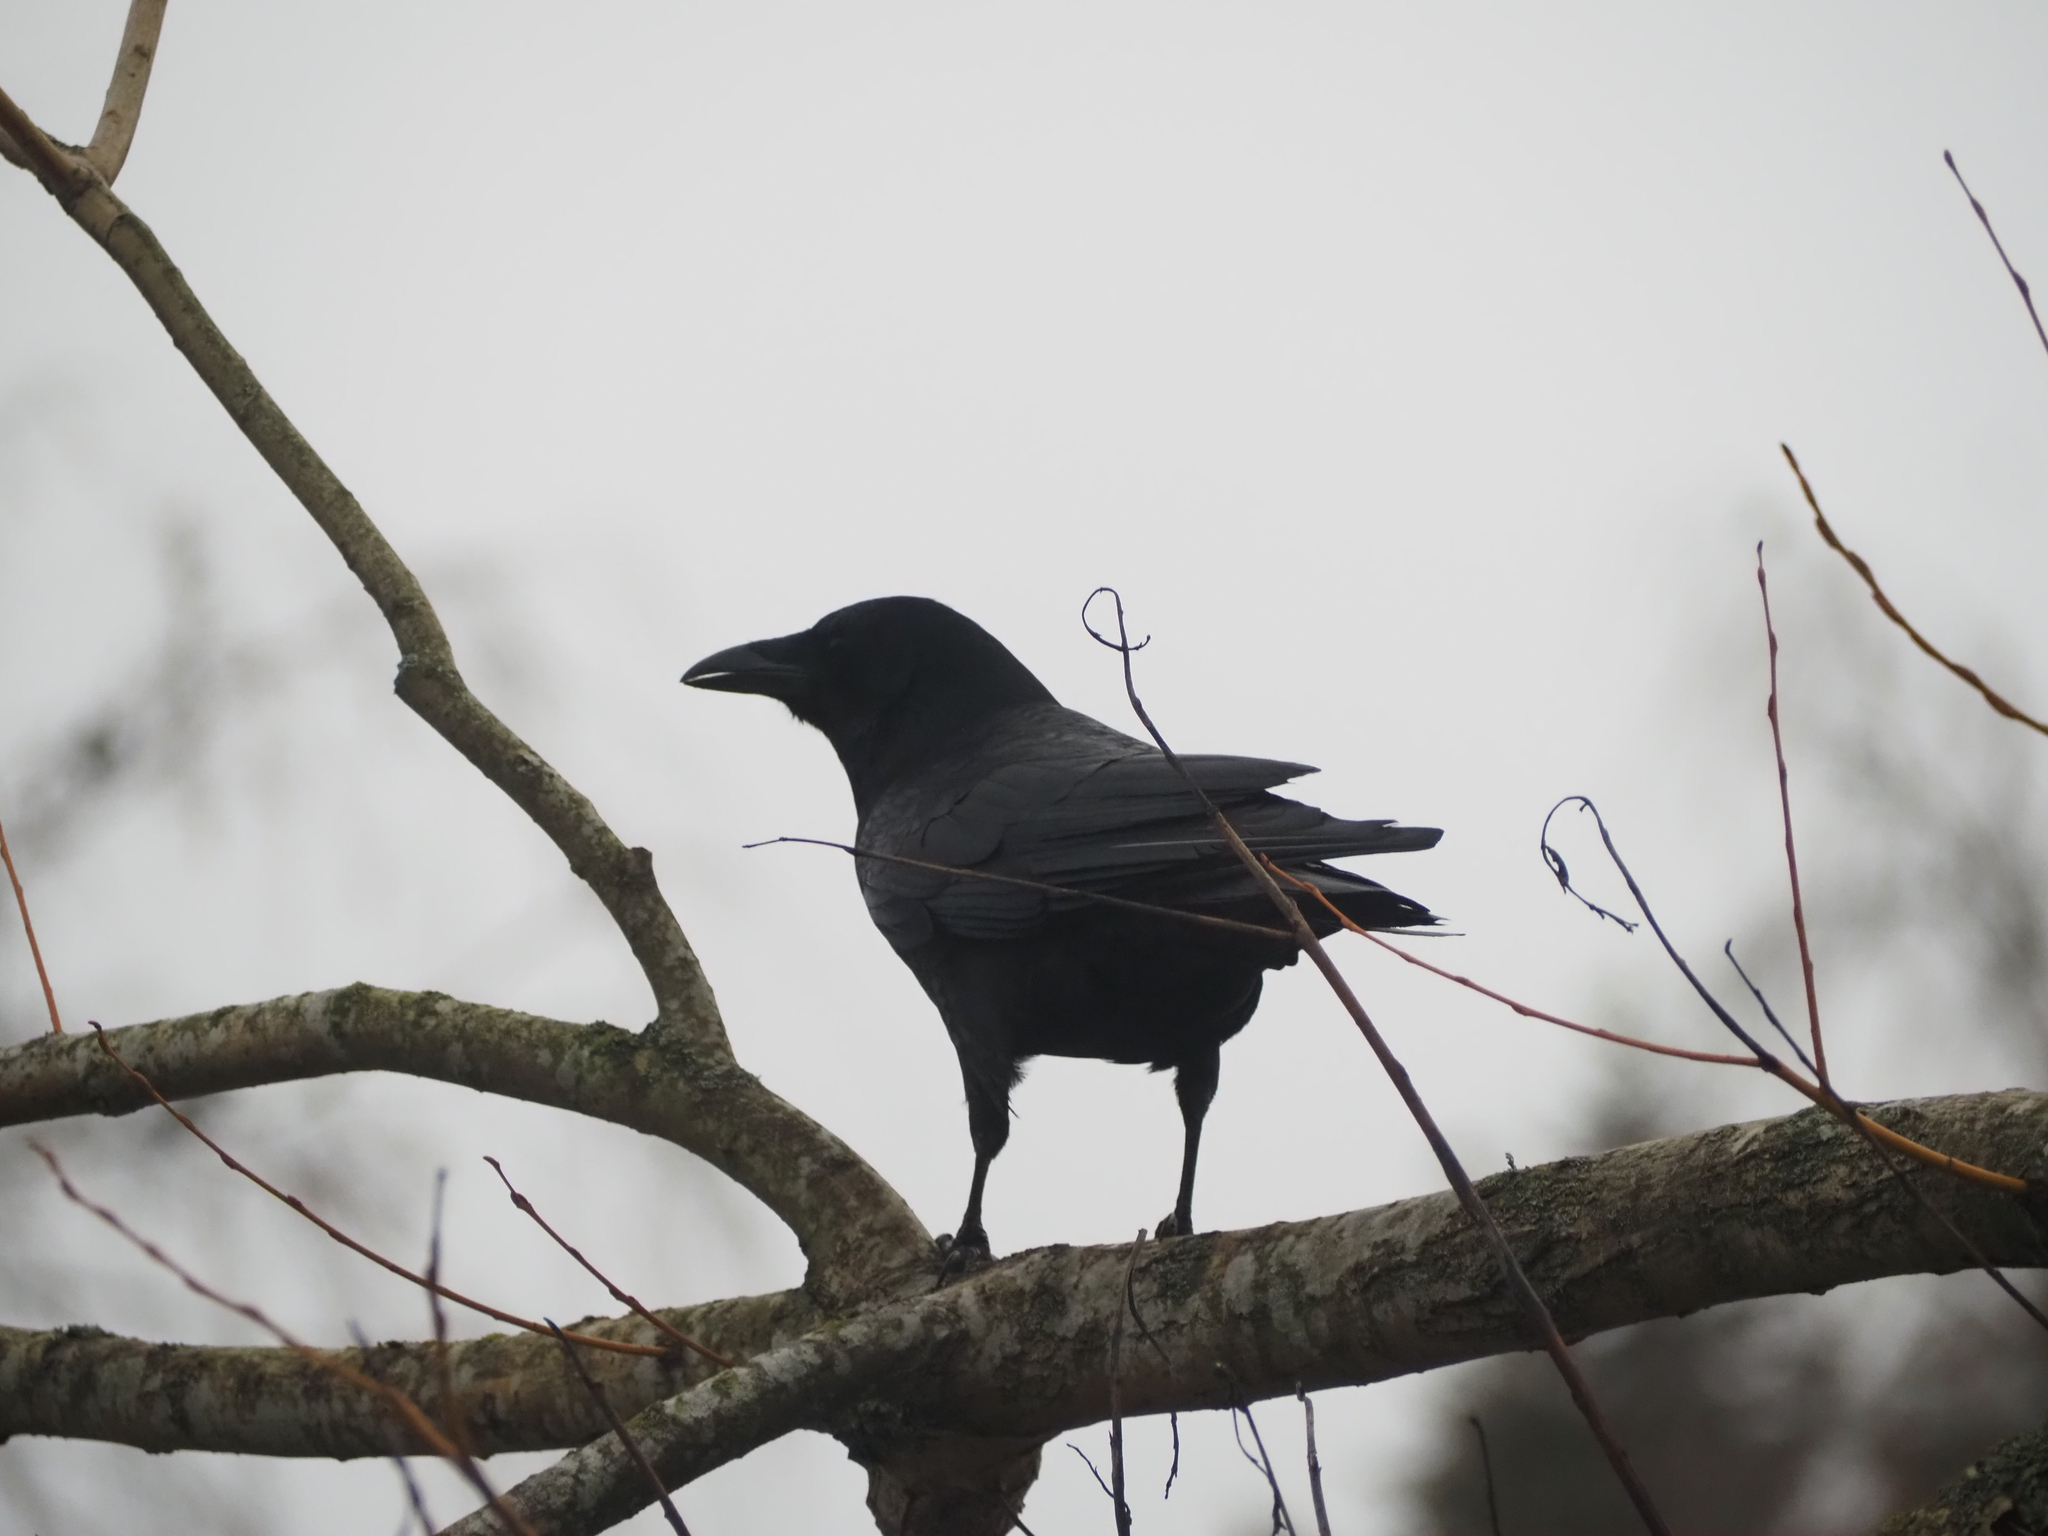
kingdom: Animalia
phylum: Chordata
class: Aves
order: Passeriformes
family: Corvidae
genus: Corvus
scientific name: Corvus brachyrhynchos
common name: American crow
